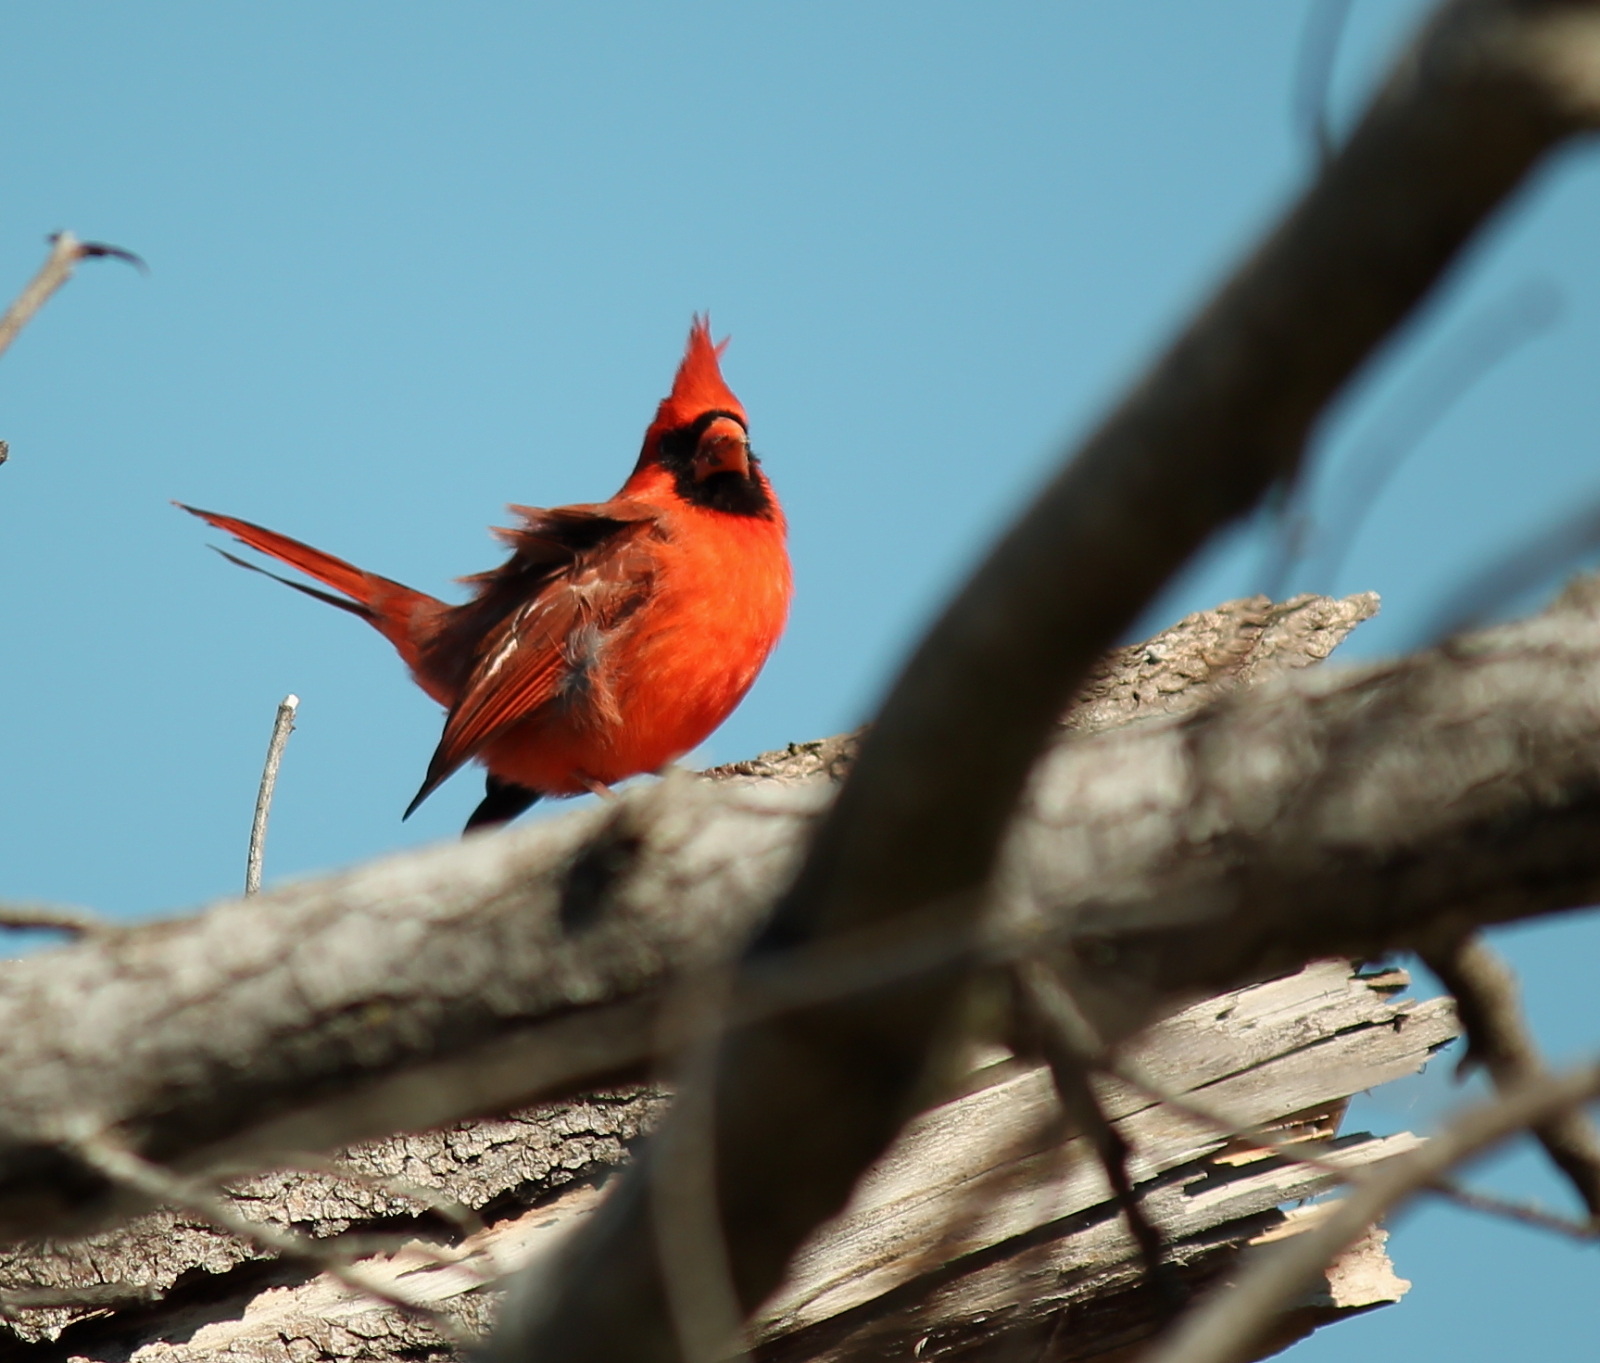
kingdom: Animalia
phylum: Chordata
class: Aves
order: Passeriformes
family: Cardinalidae
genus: Cardinalis
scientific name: Cardinalis cardinalis
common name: Northern cardinal
